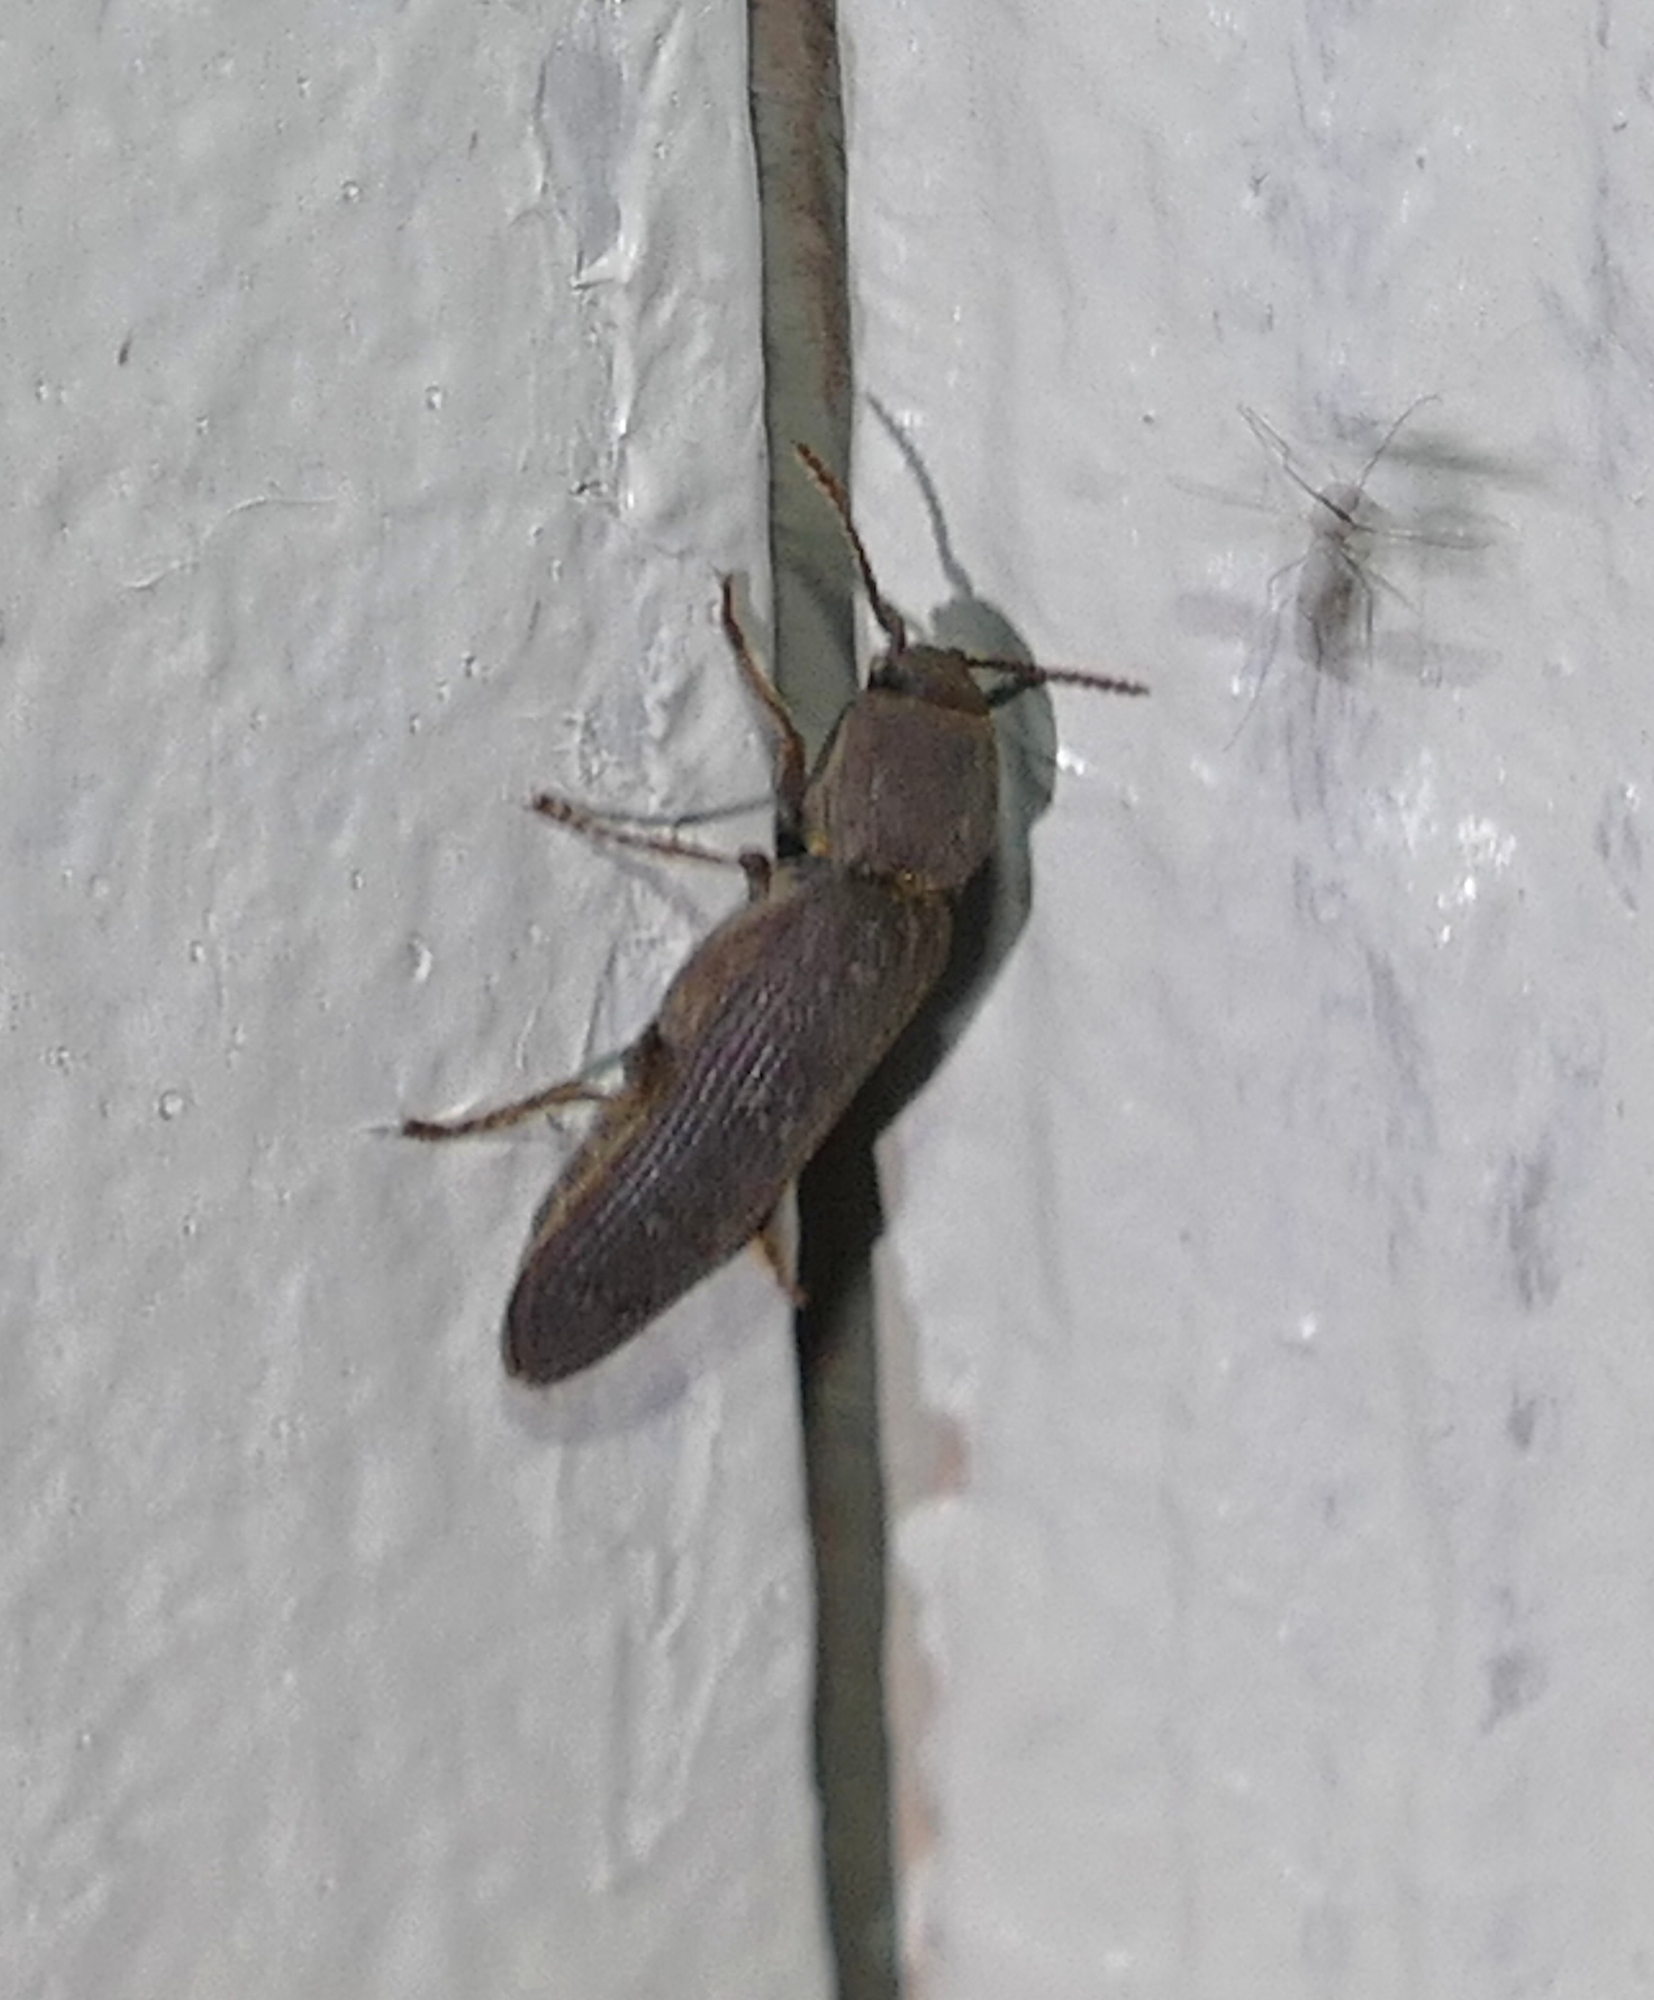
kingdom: Animalia
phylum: Arthropoda
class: Insecta
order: Coleoptera
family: Eucnemidae
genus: Anelastes
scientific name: Anelastes drurii
